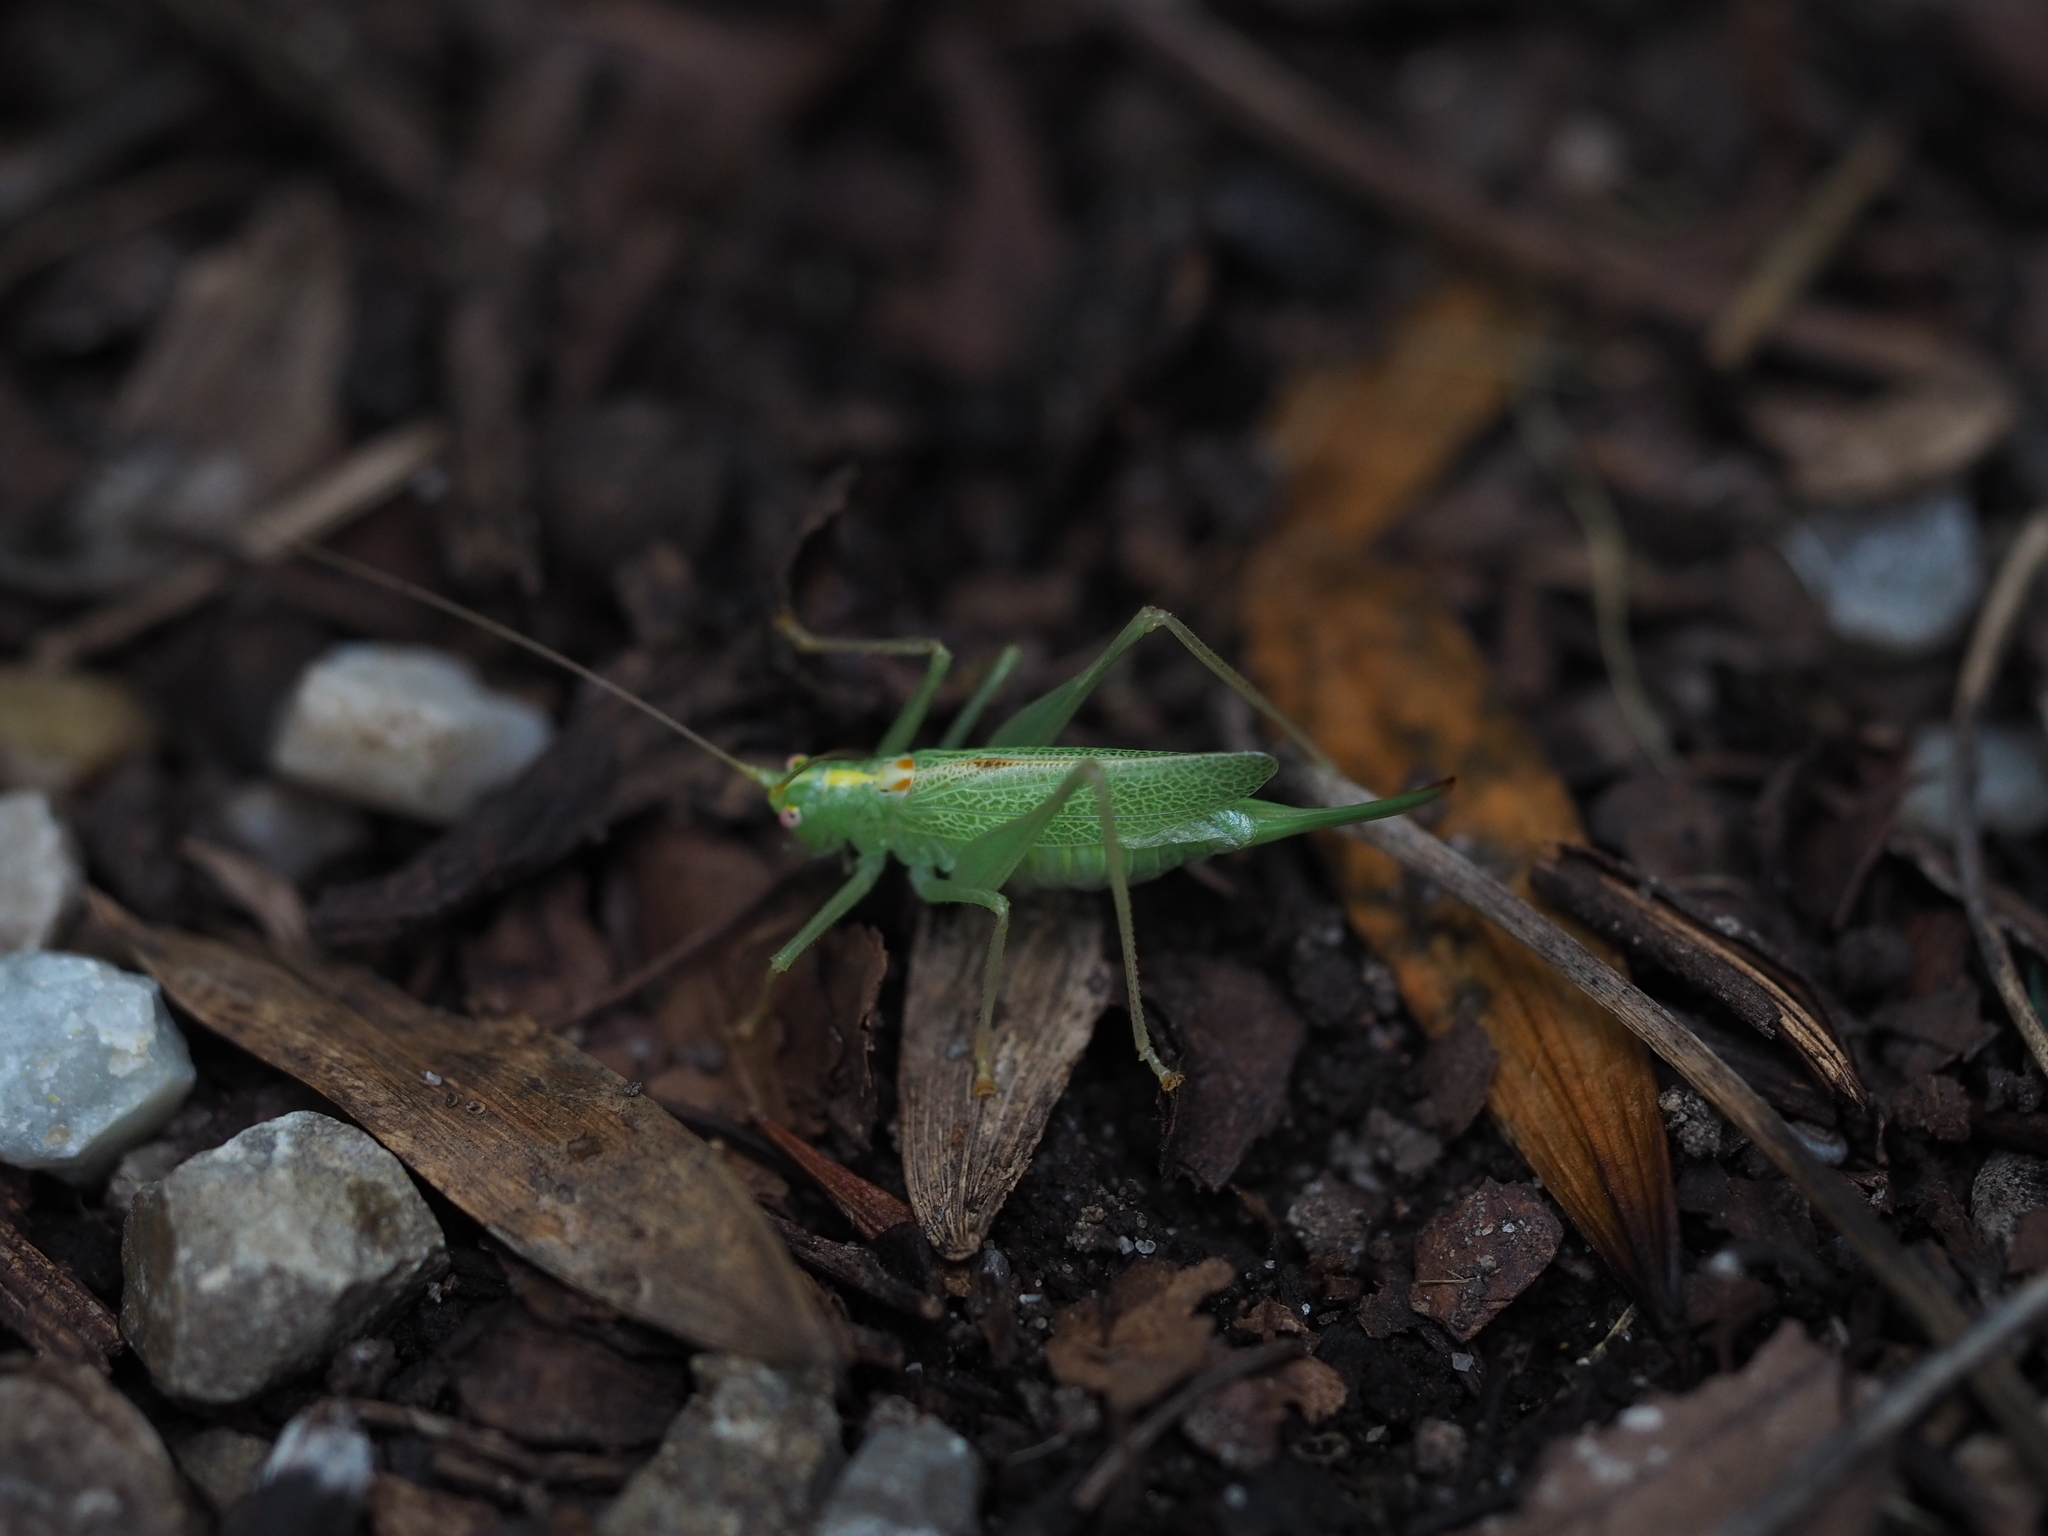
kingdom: Animalia
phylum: Arthropoda
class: Insecta
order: Orthoptera
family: Tettigoniidae
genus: Meconema
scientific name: Meconema thalassinum
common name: Oak bush-cricket
